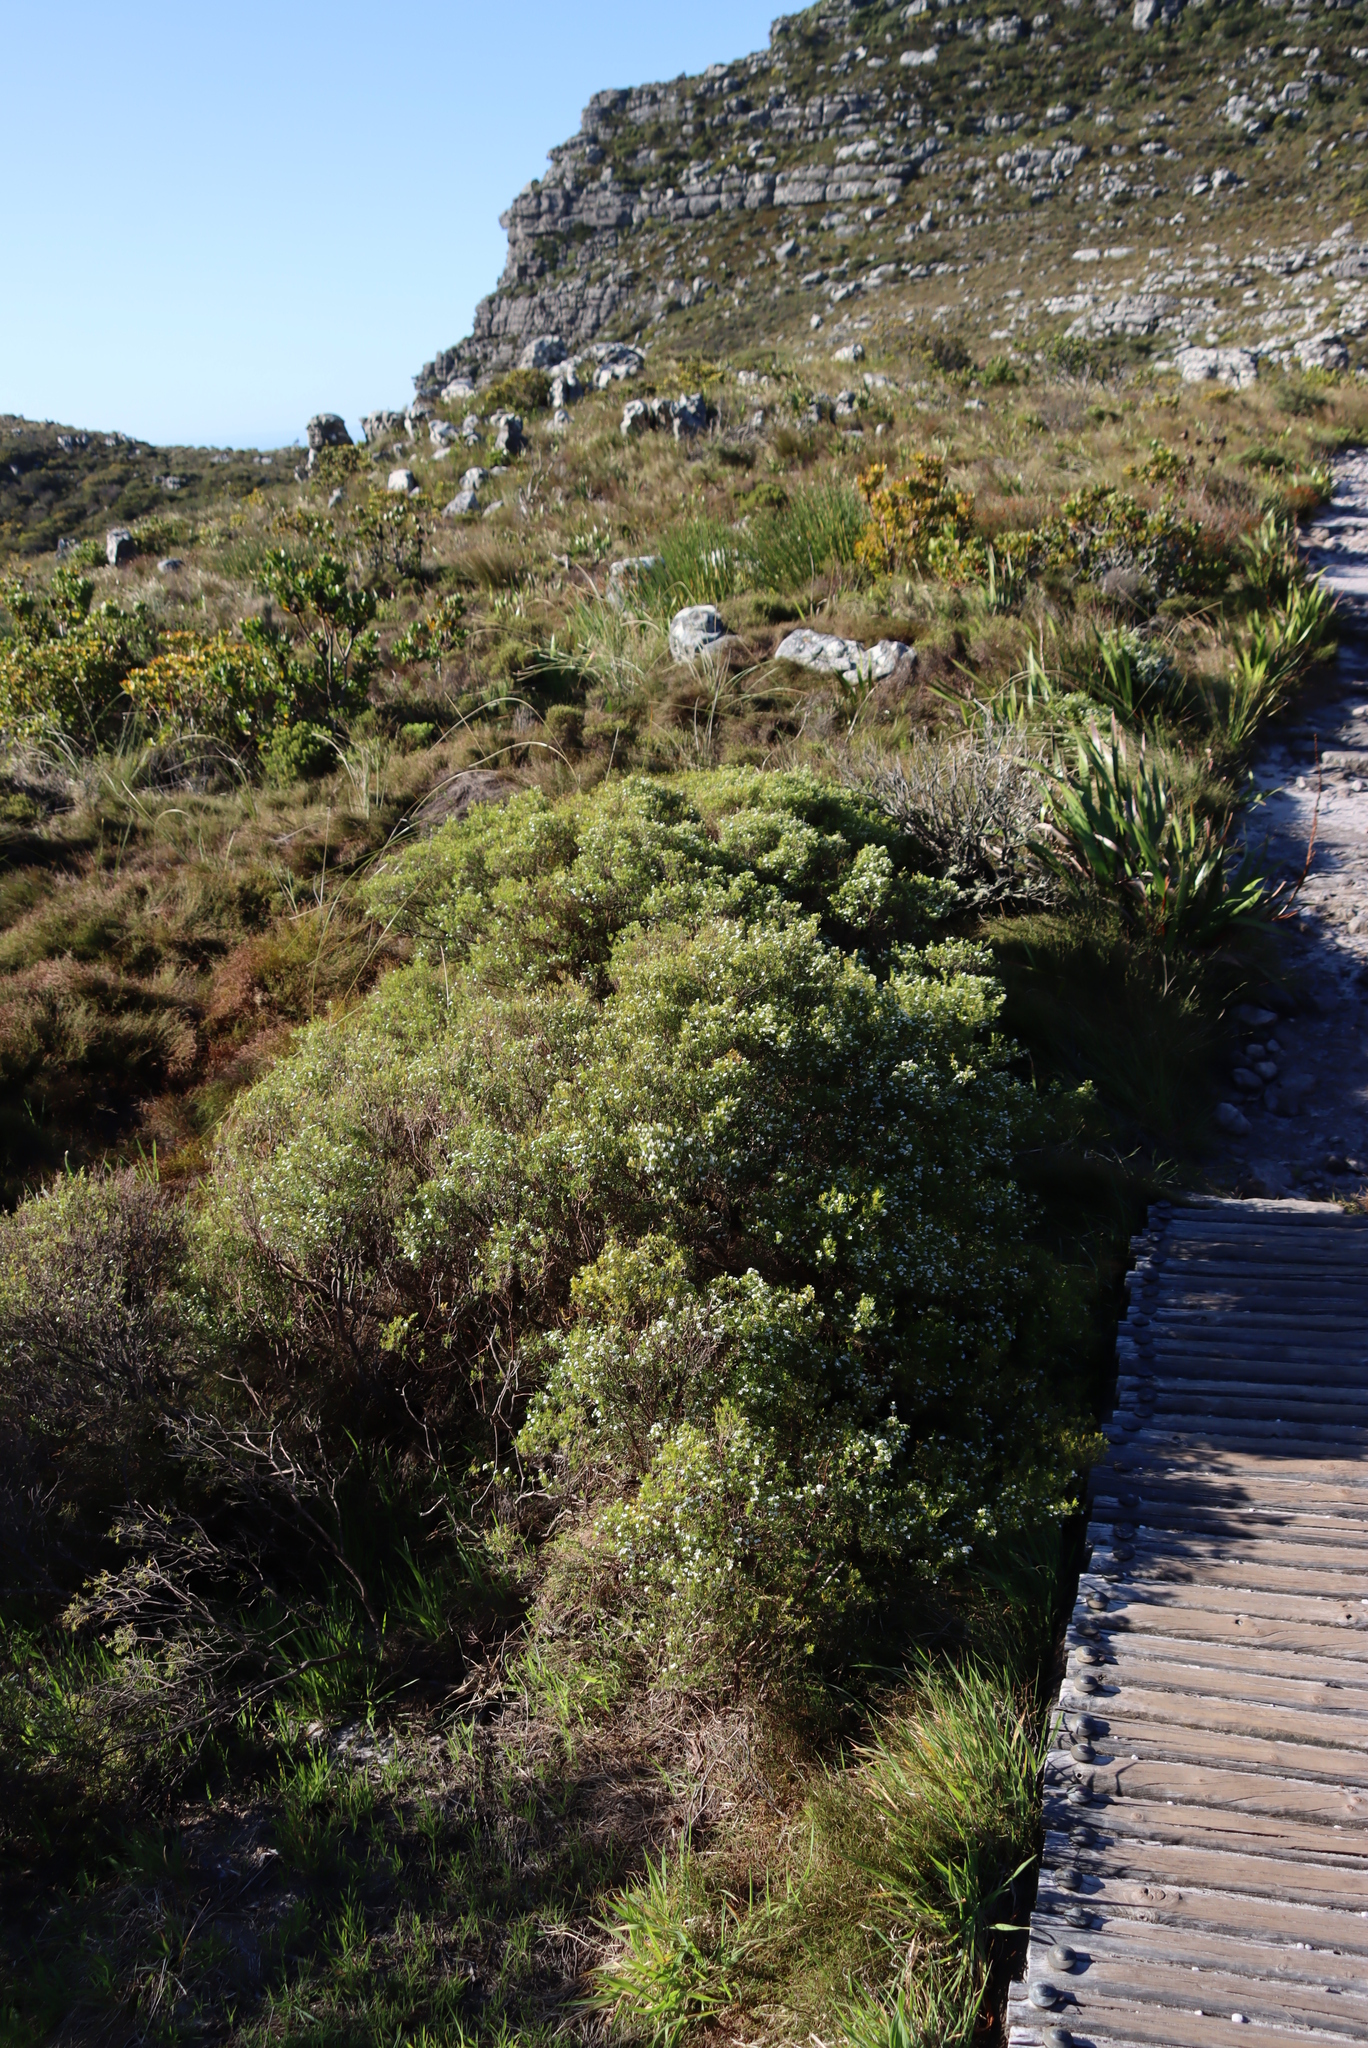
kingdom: Plantae
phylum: Tracheophyta
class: Magnoliopsida
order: Sapindales
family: Rutaceae
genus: Coleonema
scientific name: Coleonema album
